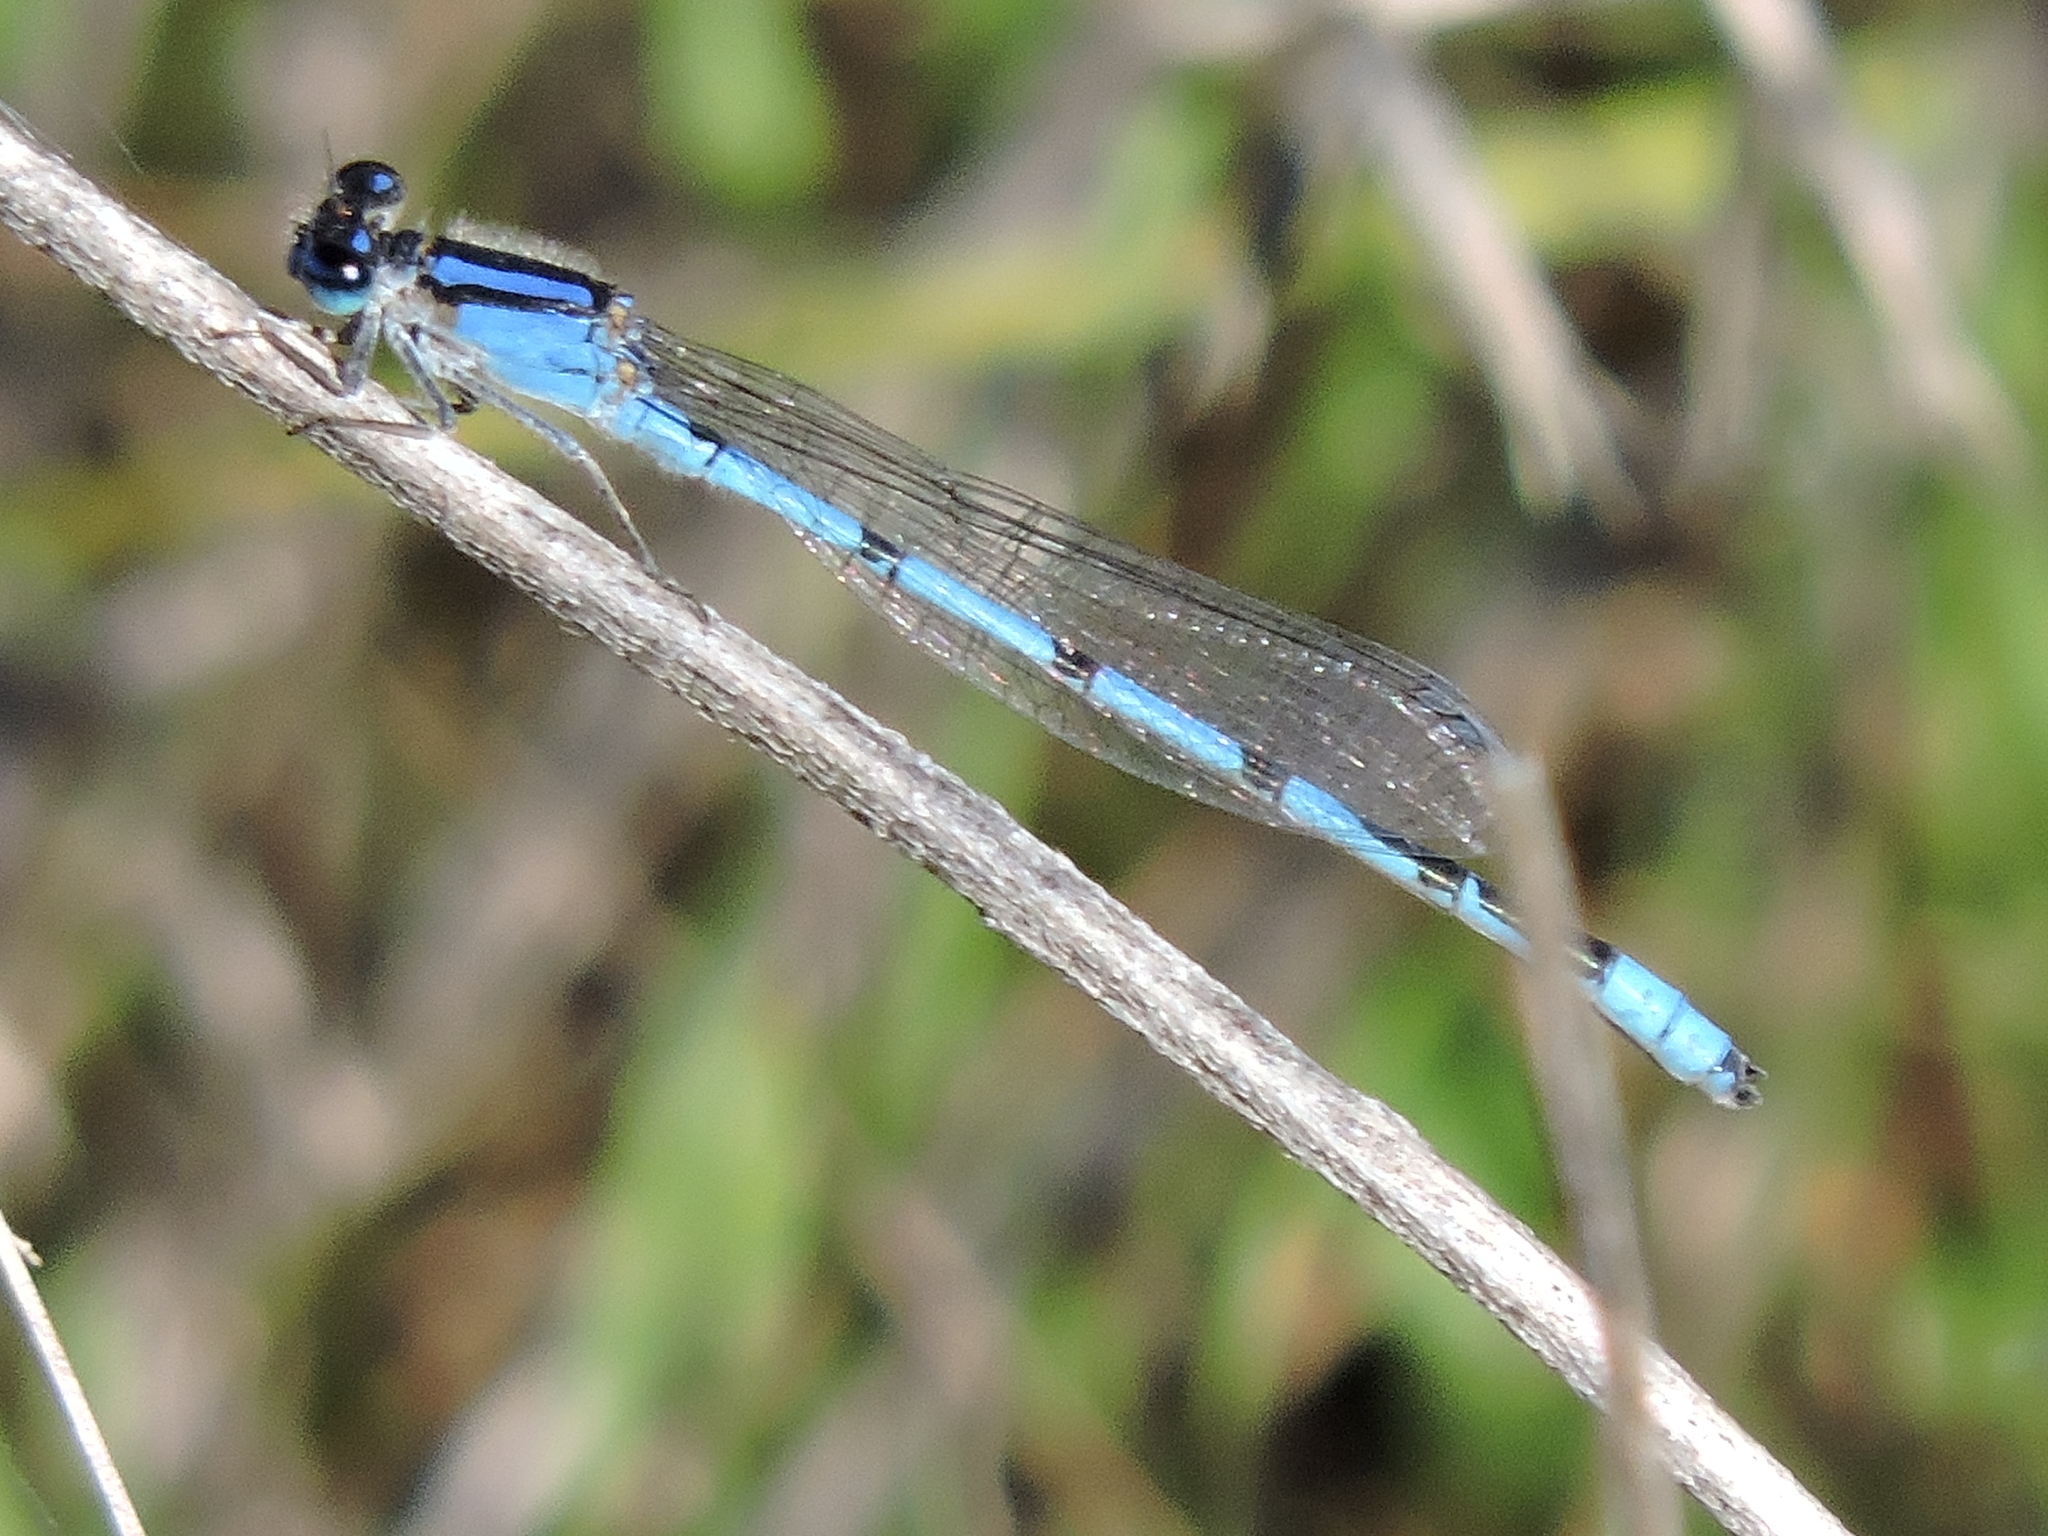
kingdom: Animalia
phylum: Arthropoda
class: Insecta
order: Odonata
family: Coenagrionidae
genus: Enallagma
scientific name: Enallagma civile
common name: Damselfly
